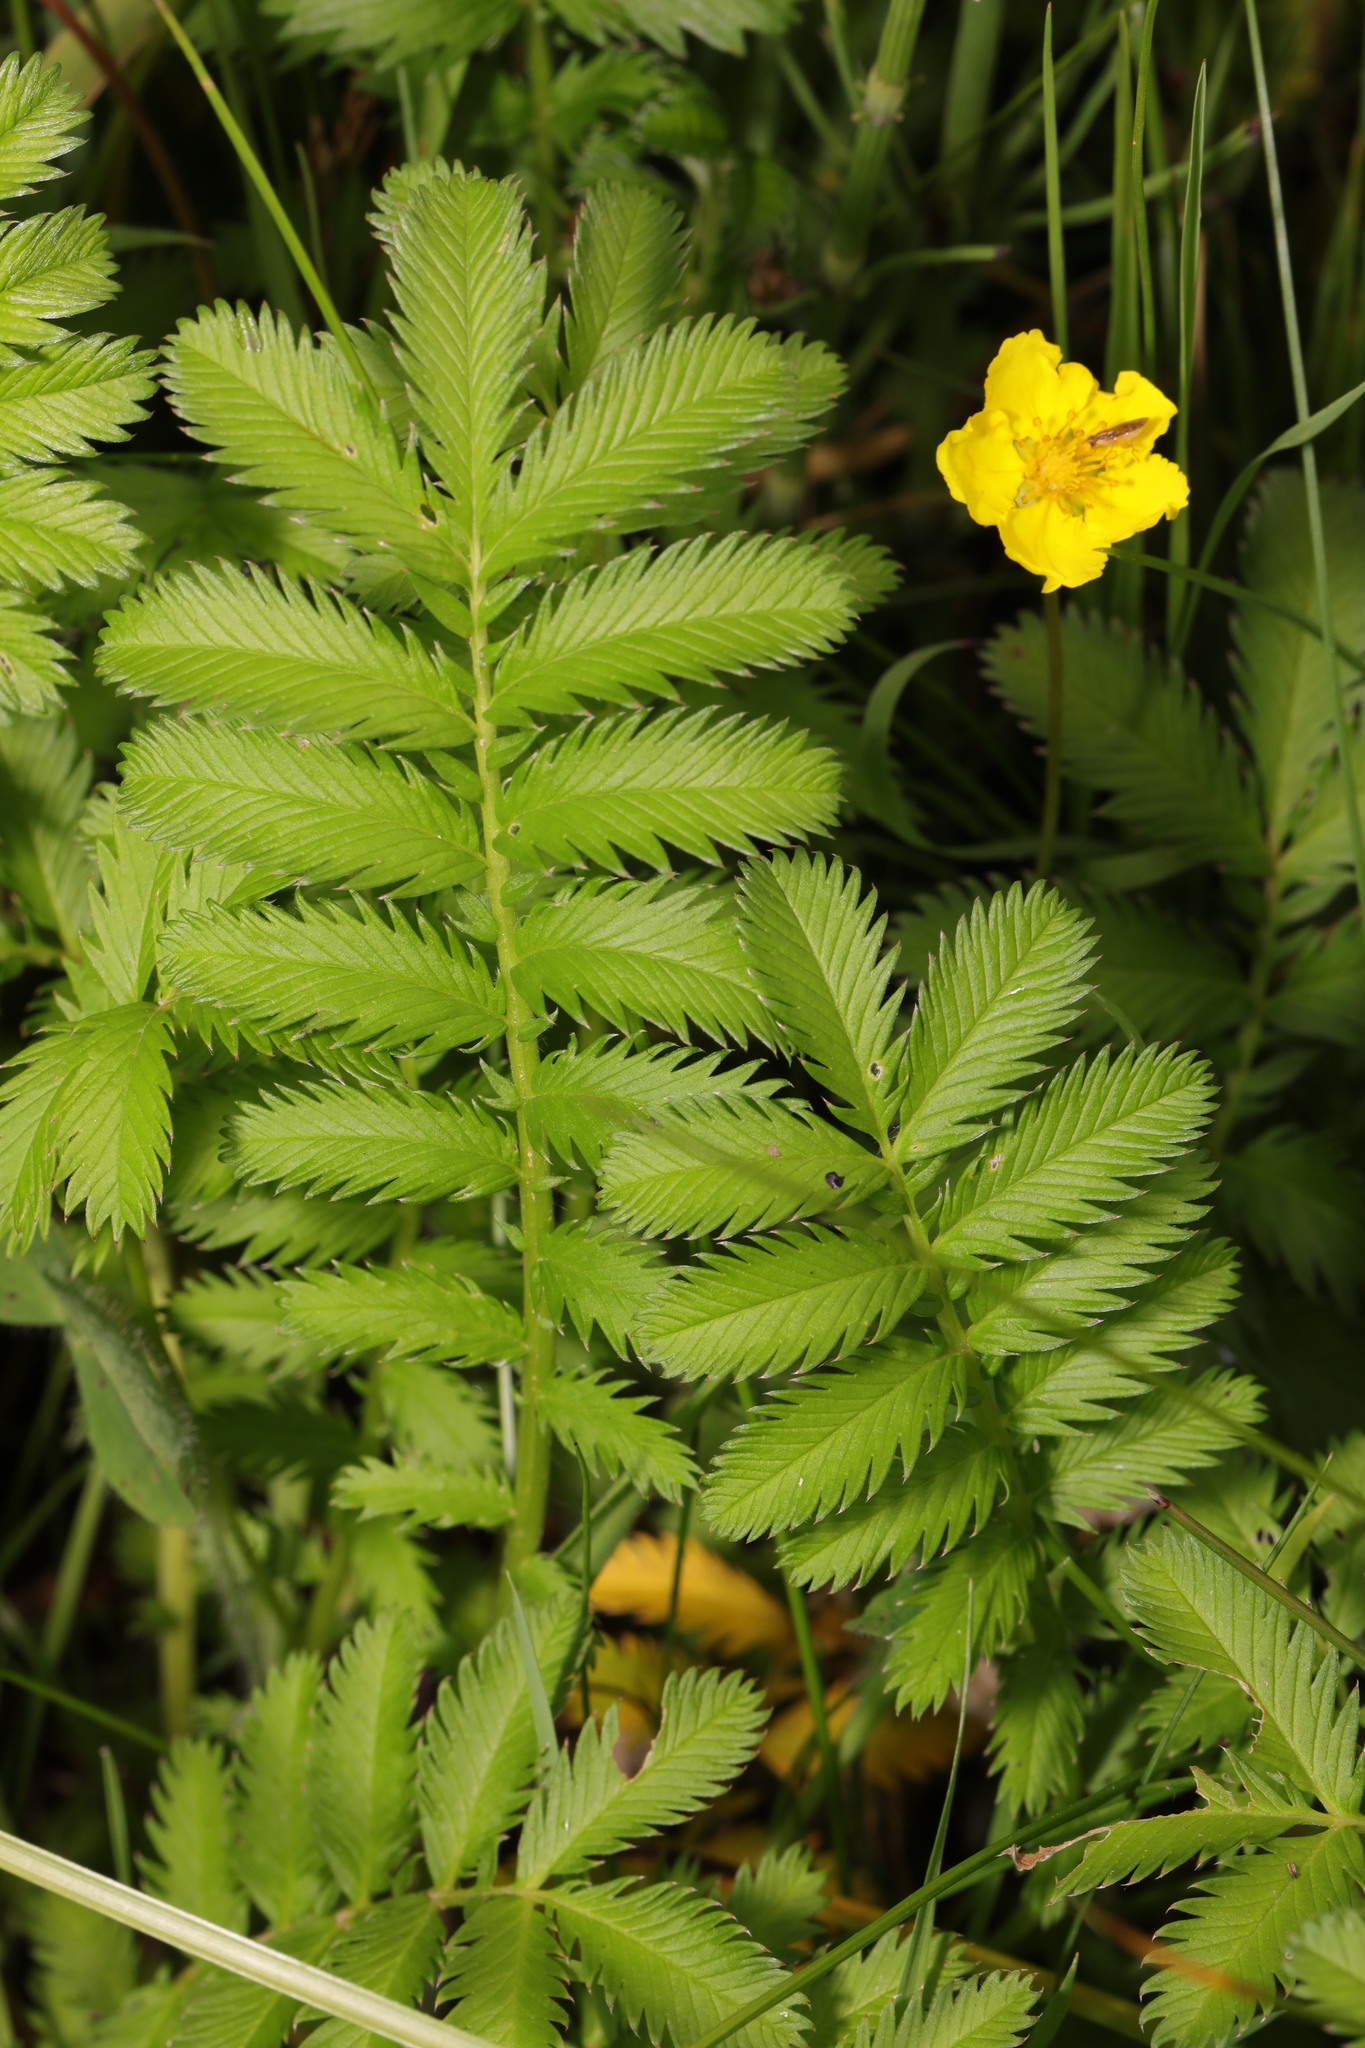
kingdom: Plantae
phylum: Tracheophyta
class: Magnoliopsida
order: Rosales
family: Rosaceae
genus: Argentina
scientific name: Argentina anserina
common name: Common silverweed
